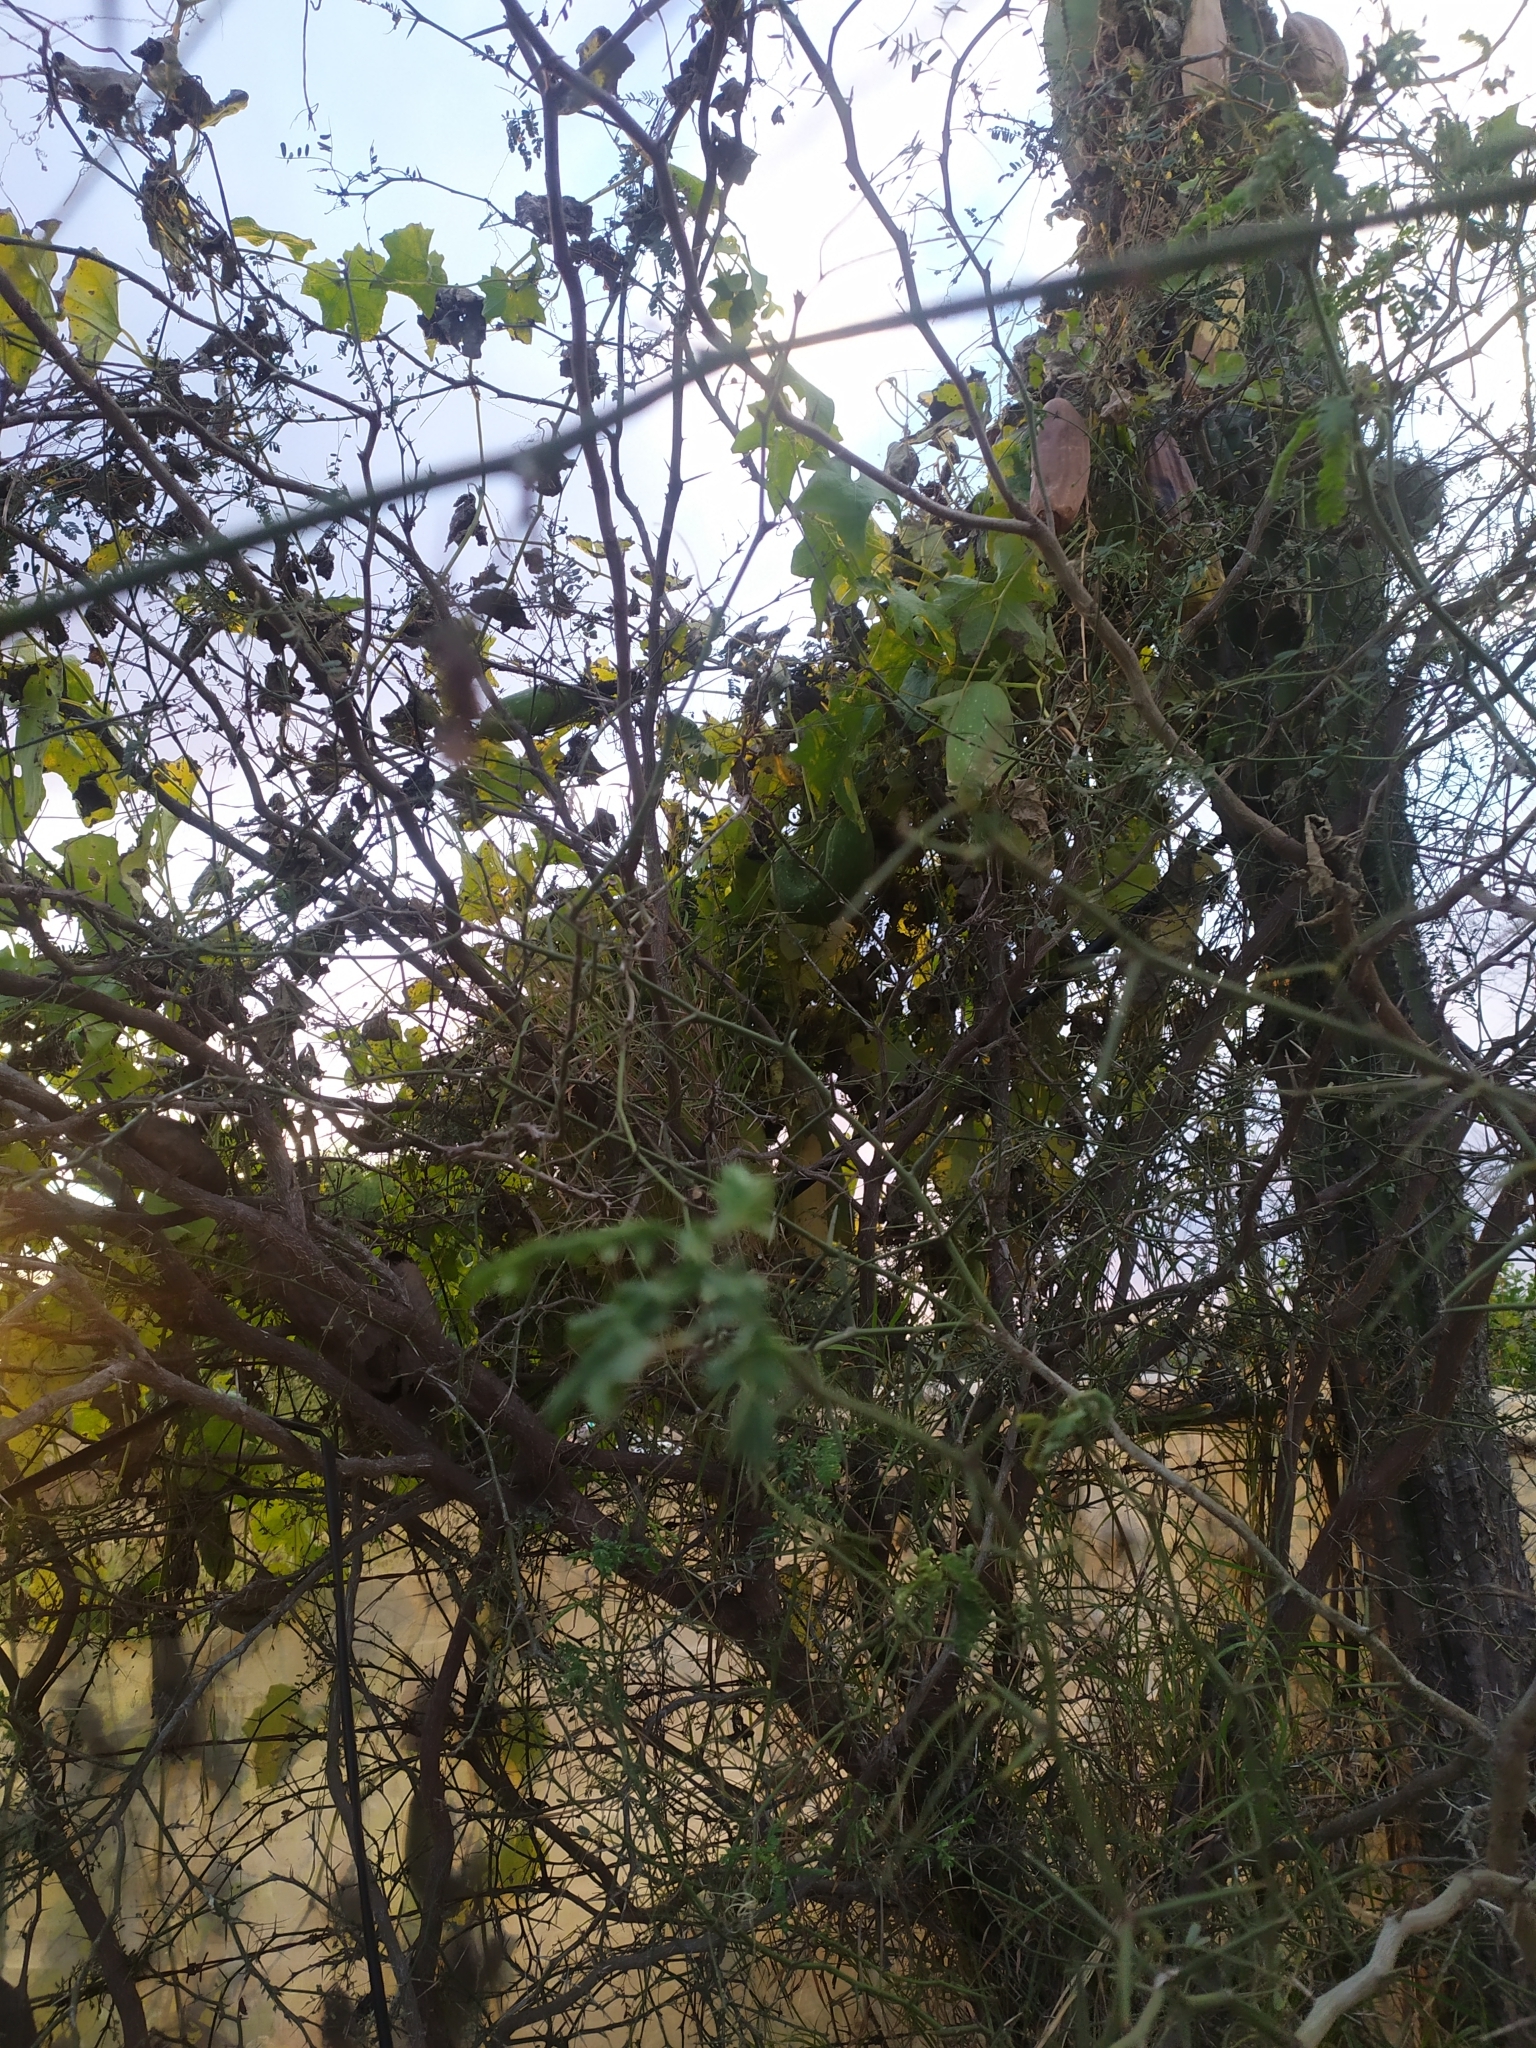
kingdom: Plantae
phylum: Tracheophyta
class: Magnoliopsida
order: Cucurbitales
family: Cucurbitaceae
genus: Luffa
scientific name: Luffa aegyptiaca
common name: Sponge gourd
